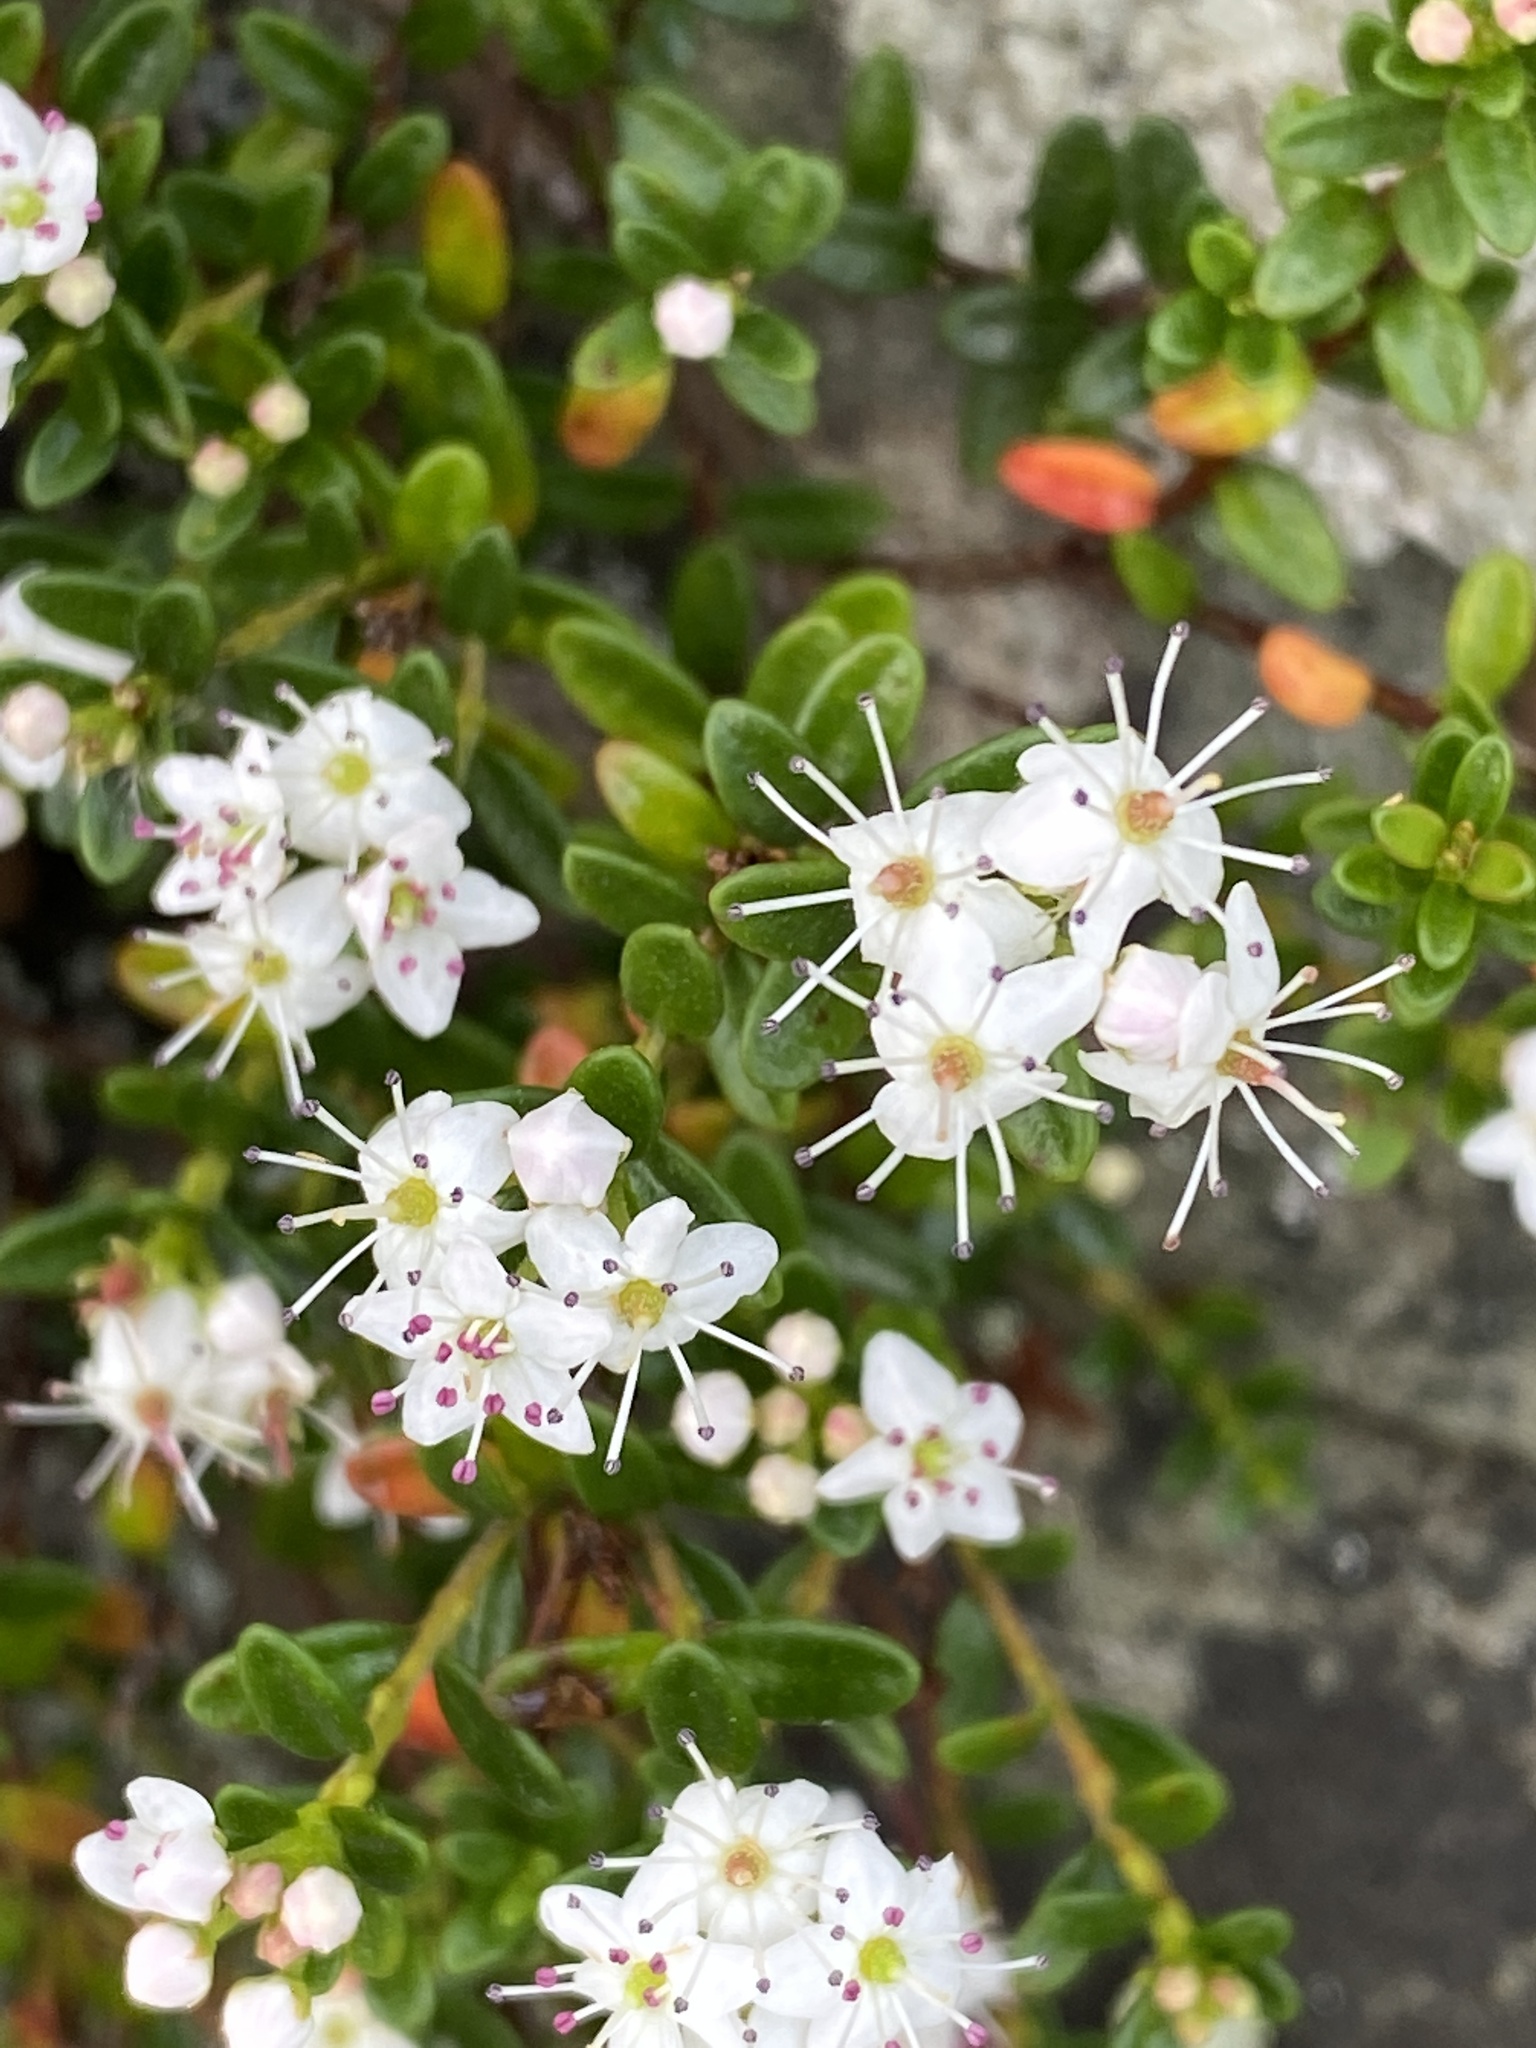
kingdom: Plantae
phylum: Tracheophyta
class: Magnoliopsida
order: Ericales
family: Ericaceae
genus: Kalmia
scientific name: Kalmia buxifolia
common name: Sandmyrtle
